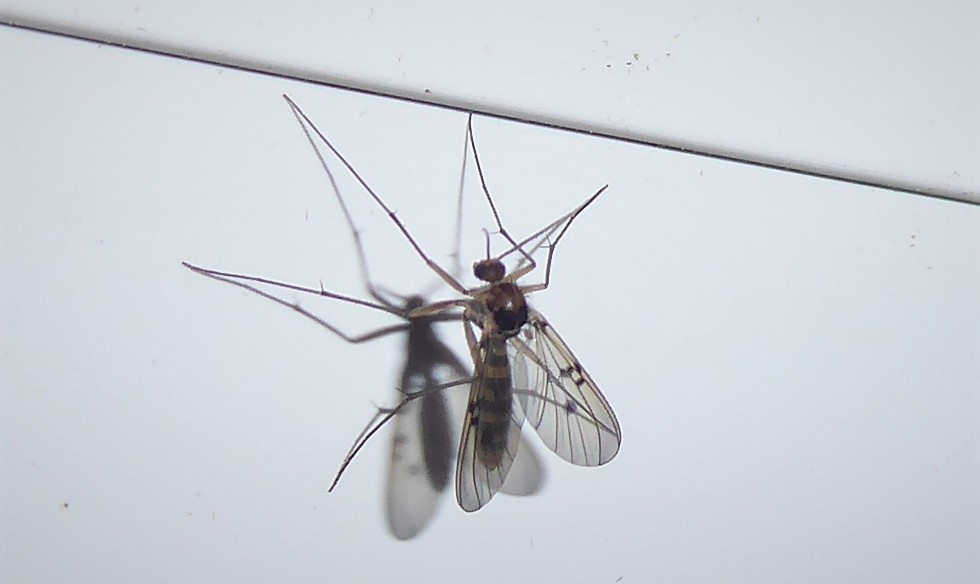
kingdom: Animalia
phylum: Arthropoda
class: Insecta
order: Diptera
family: Mycetophilidae
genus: Mycomya
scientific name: Mycomya quadrimaculata
